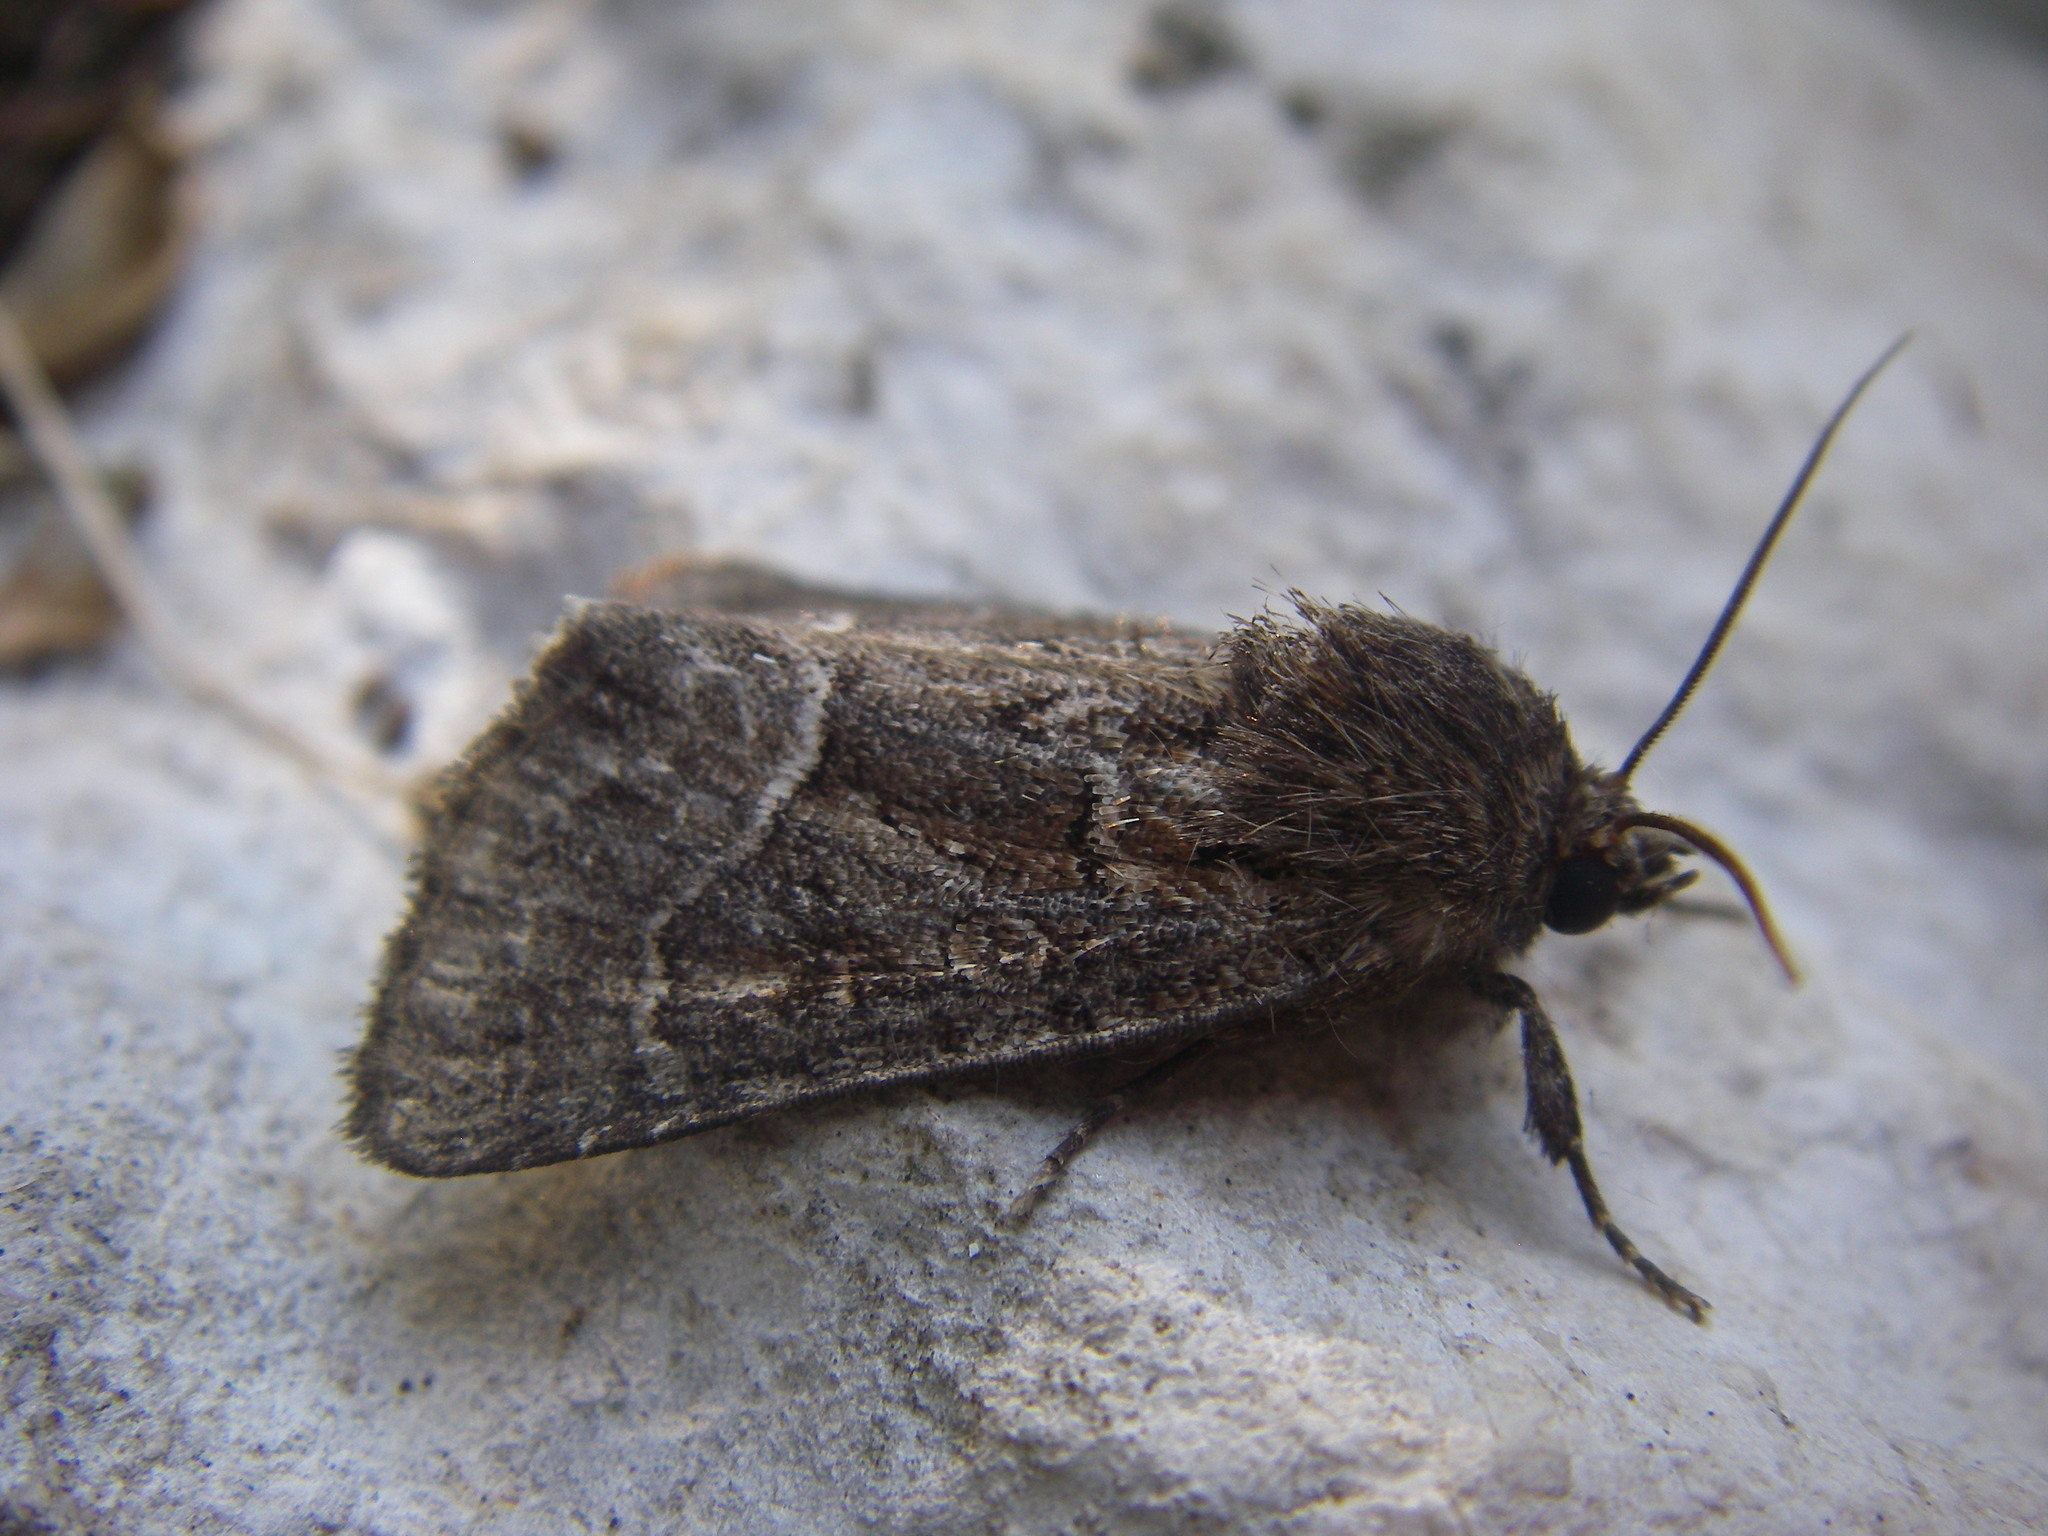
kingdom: Animalia
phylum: Arthropoda
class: Insecta
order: Lepidoptera
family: Noctuidae
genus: Thalpophila
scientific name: Thalpophila matura
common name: Straw underwing
